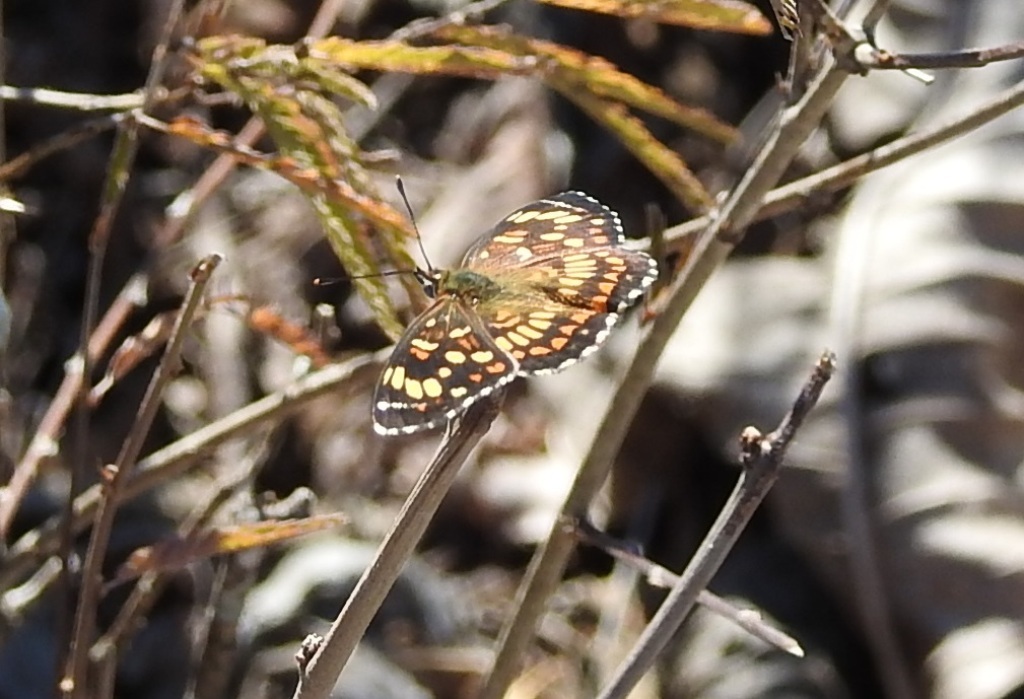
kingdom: Animalia
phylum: Arthropoda
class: Insecta
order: Lepidoptera
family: Nymphalidae
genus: Thessalia
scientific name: Thessalia theona
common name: Nymphalid moth
